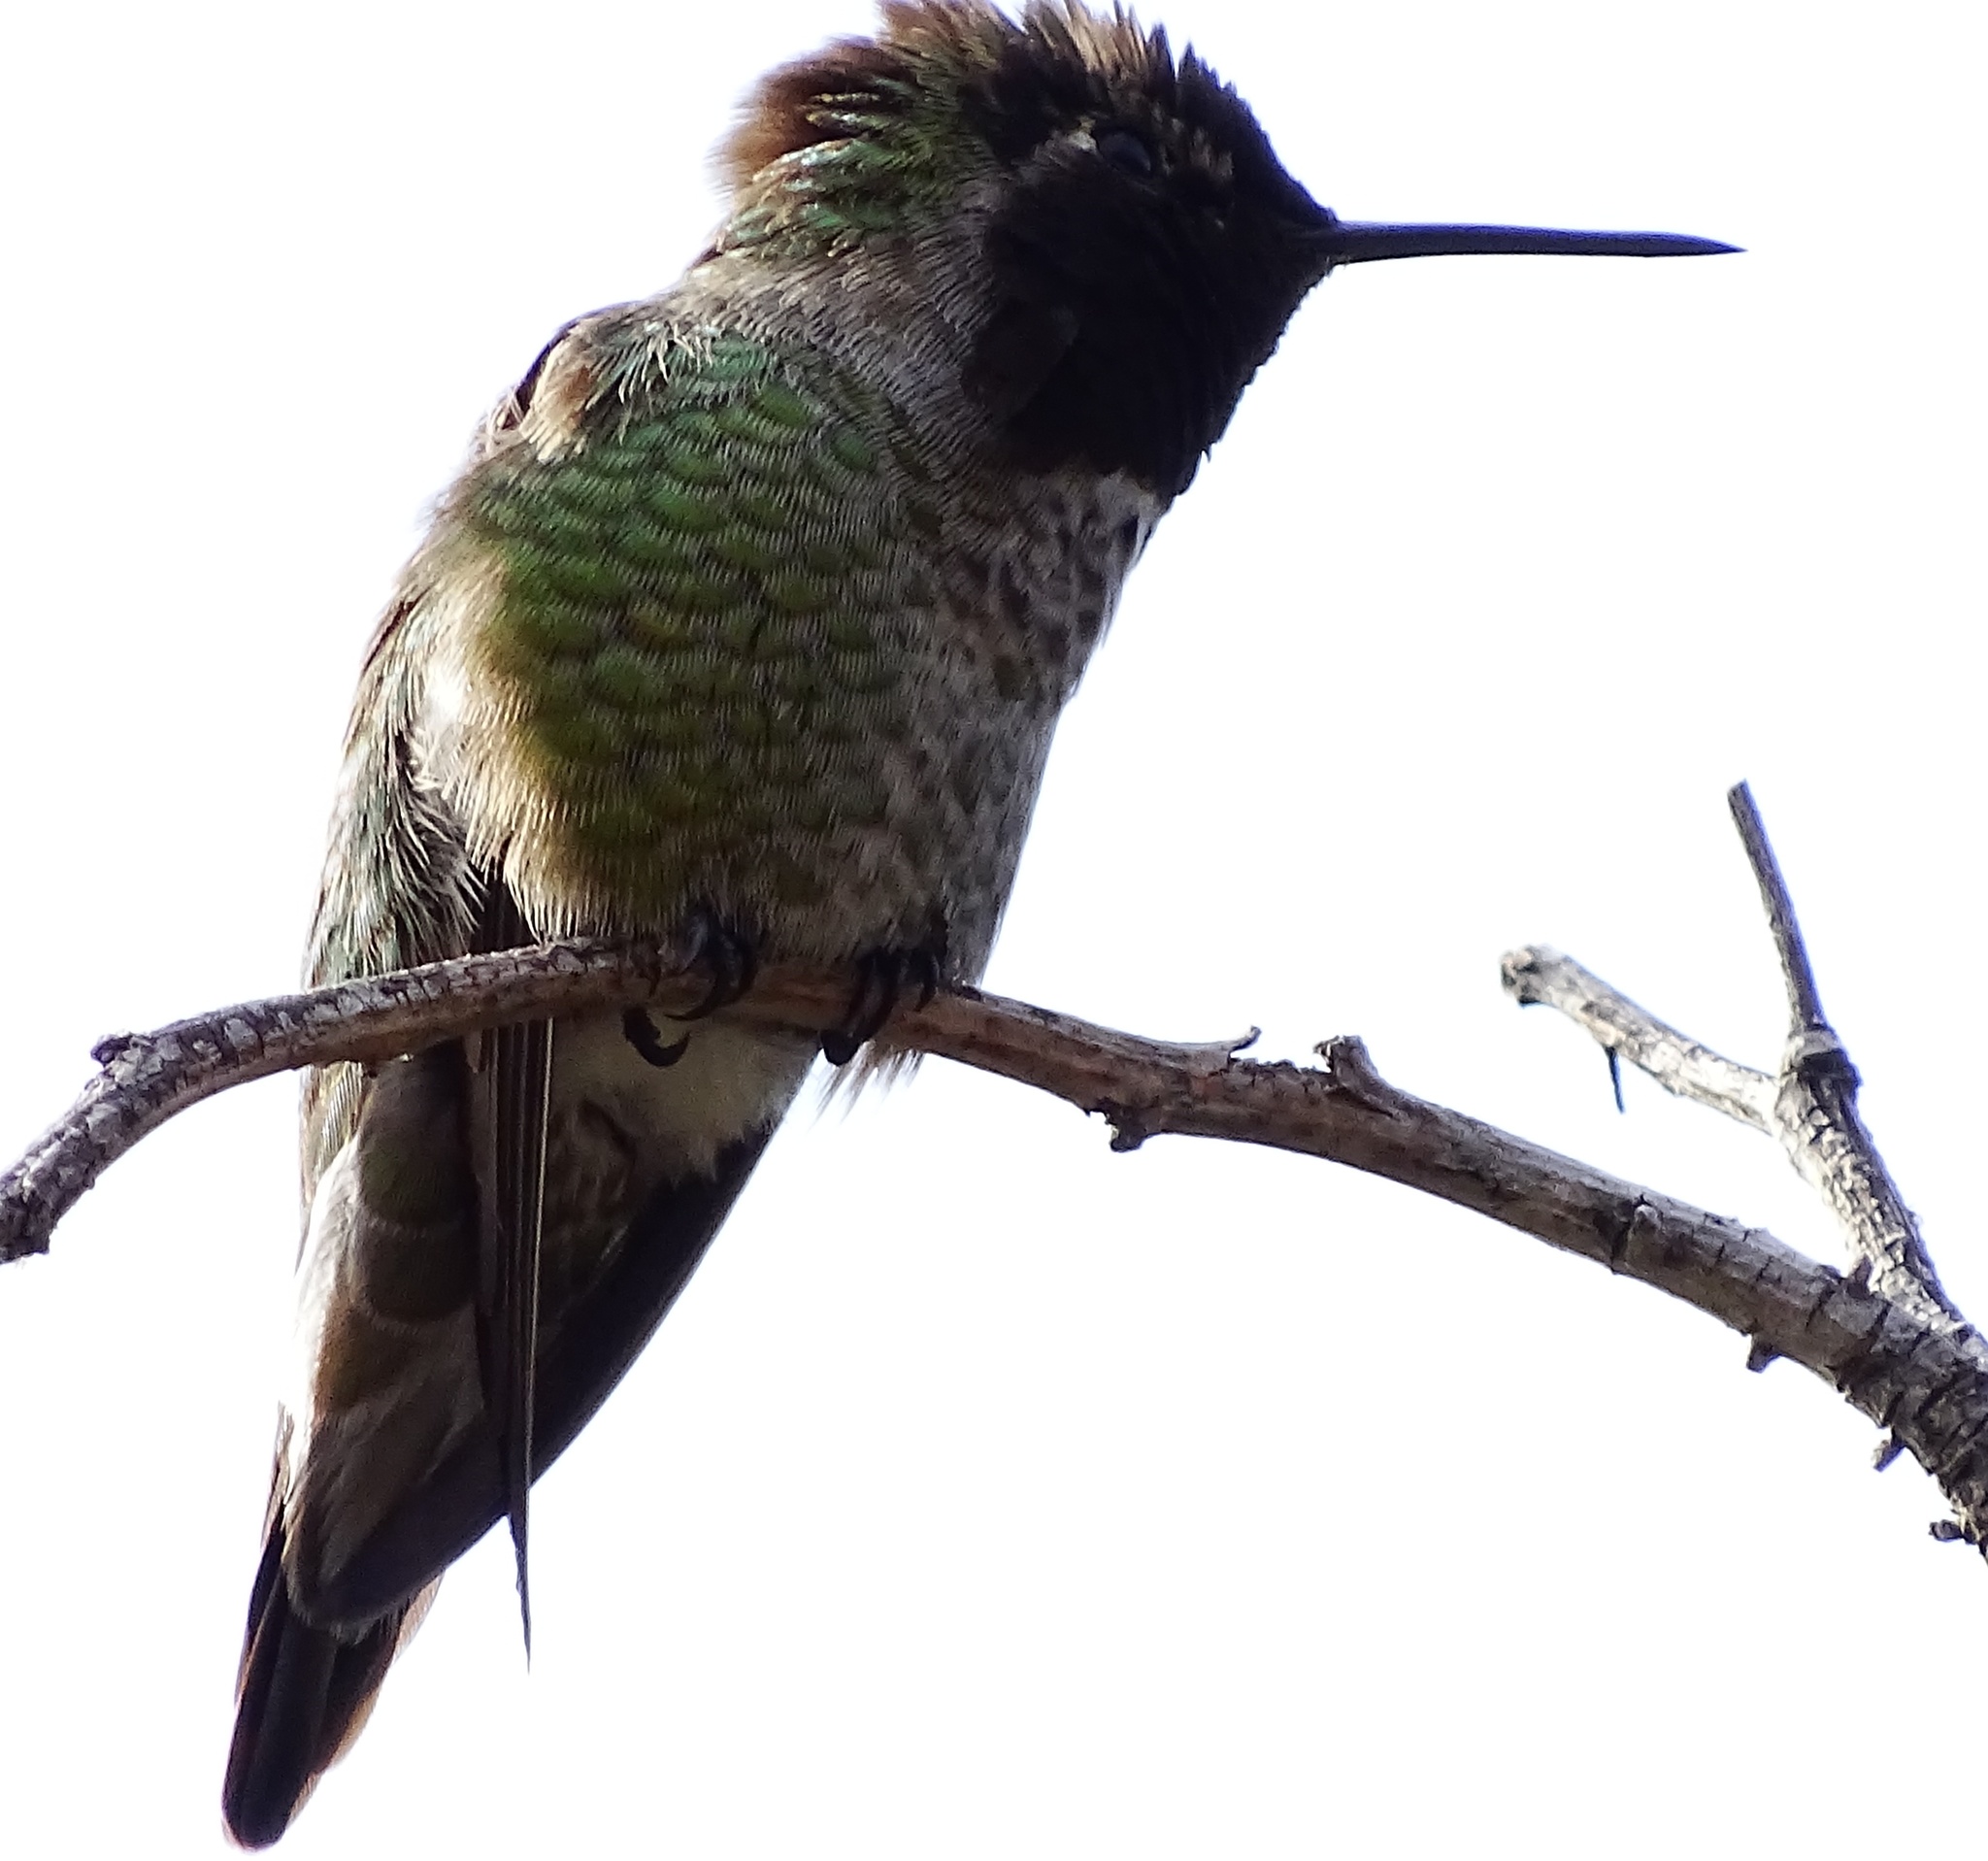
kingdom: Animalia
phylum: Chordata
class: Aves
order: Apodiformes
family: Trochilidae
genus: Calypte
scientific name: Calypte anna
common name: Anna's hummingbird
